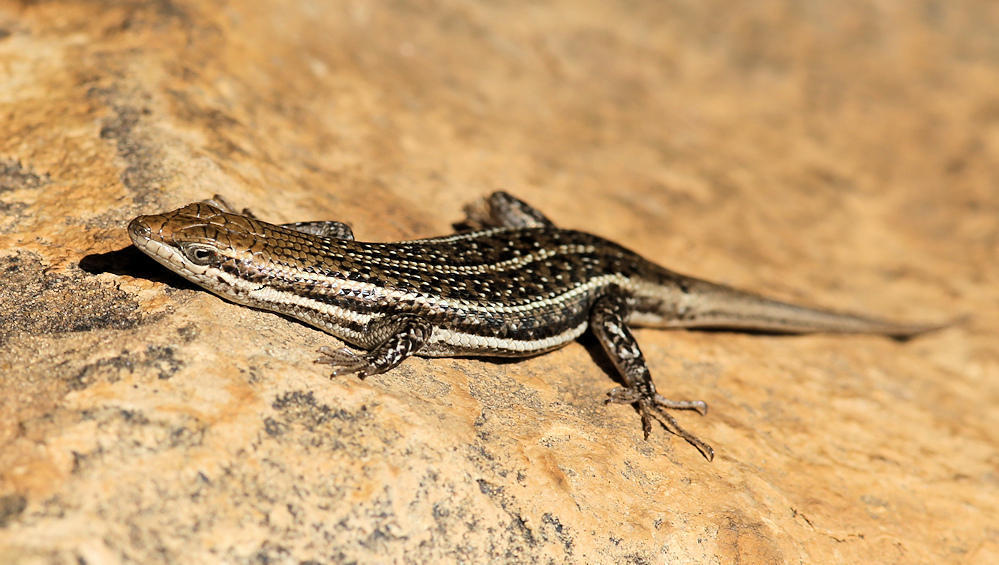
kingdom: Animalia
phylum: Chordata
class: Squamata
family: Scincidae
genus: Trachylepis
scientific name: Trachylepis varia
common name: Eastern variable skink
